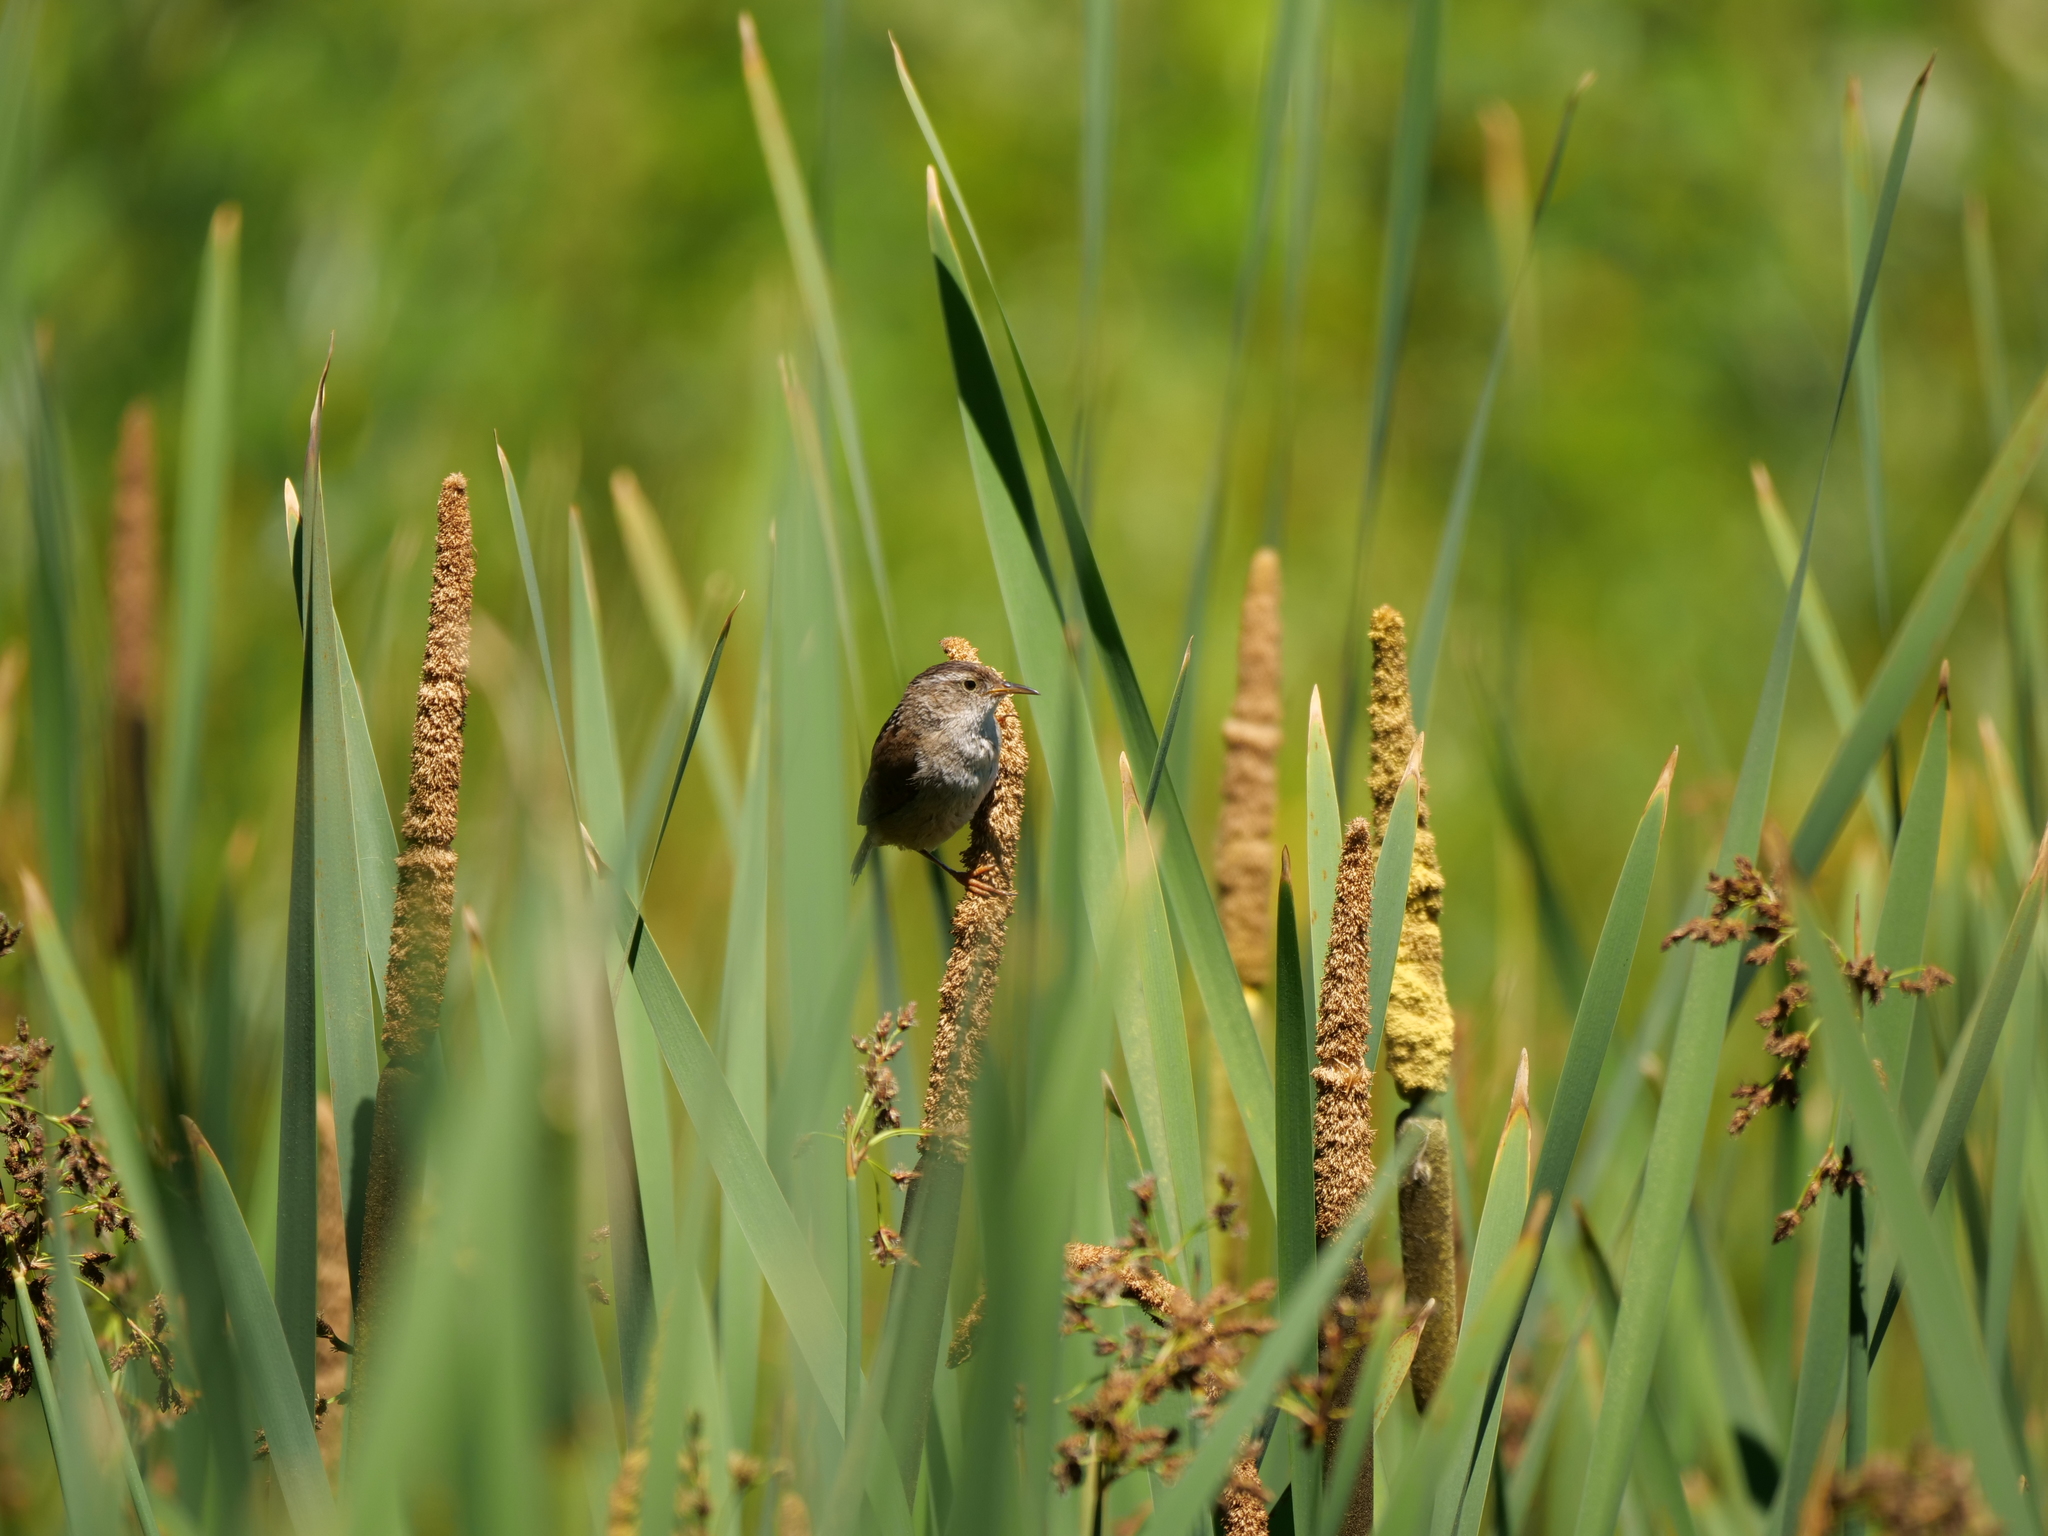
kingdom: Animalia
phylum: Chordata
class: Aves
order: Passeriformes
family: Troglodytidae
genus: Cistothorus
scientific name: Cistothorus palustris
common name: Marsh wren
